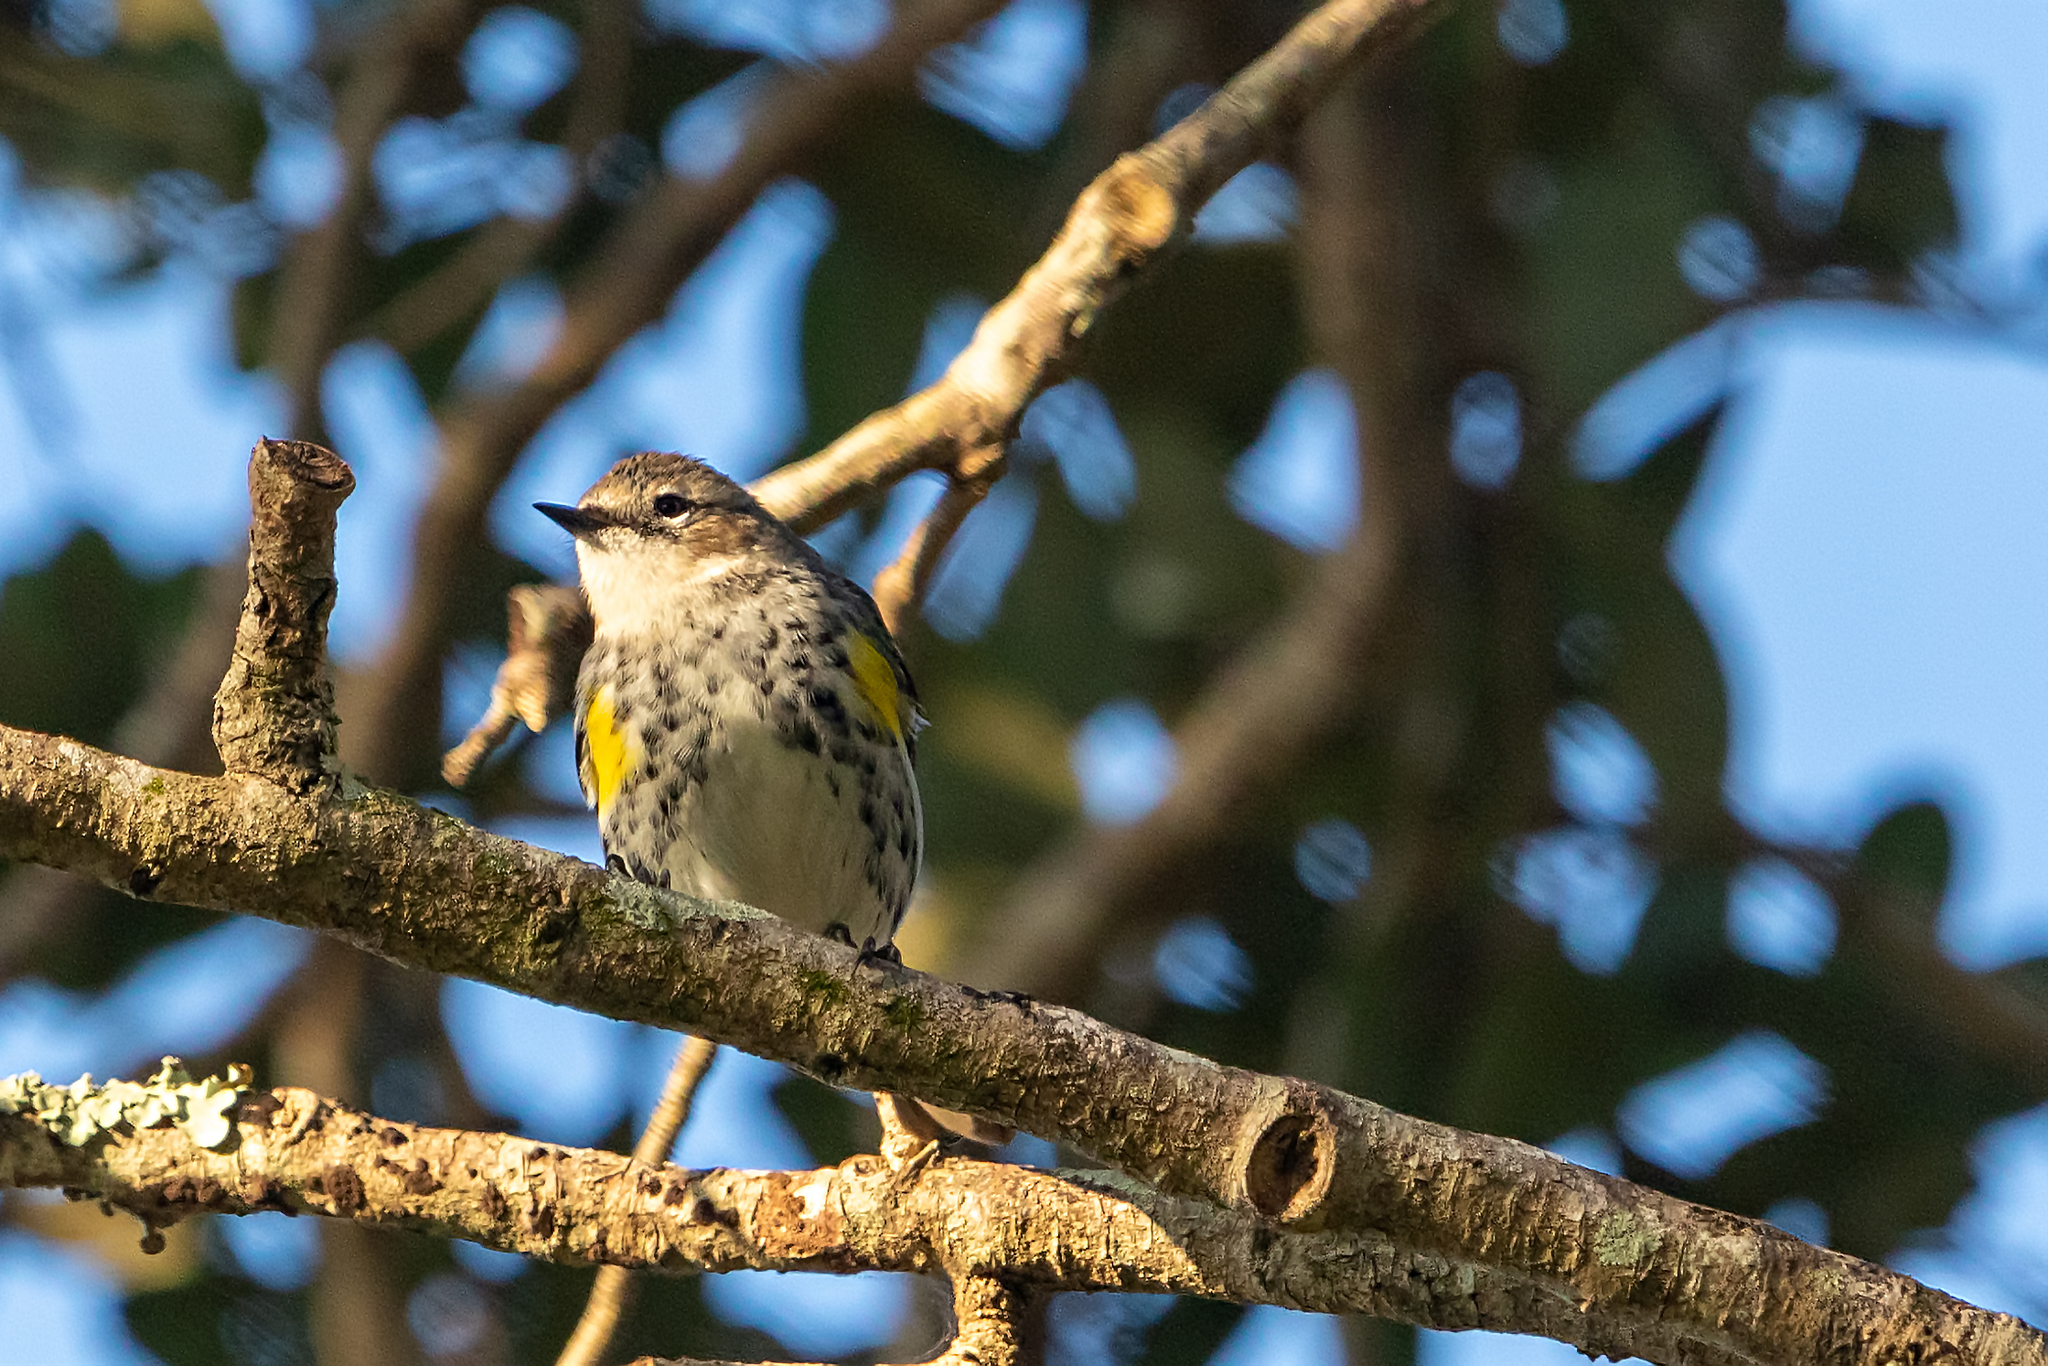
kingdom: Animalia
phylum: Chordata
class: Aves
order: Passeriformes
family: Parulidae
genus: Setophaga
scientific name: Setophaga coronata
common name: Myrtle warbler
